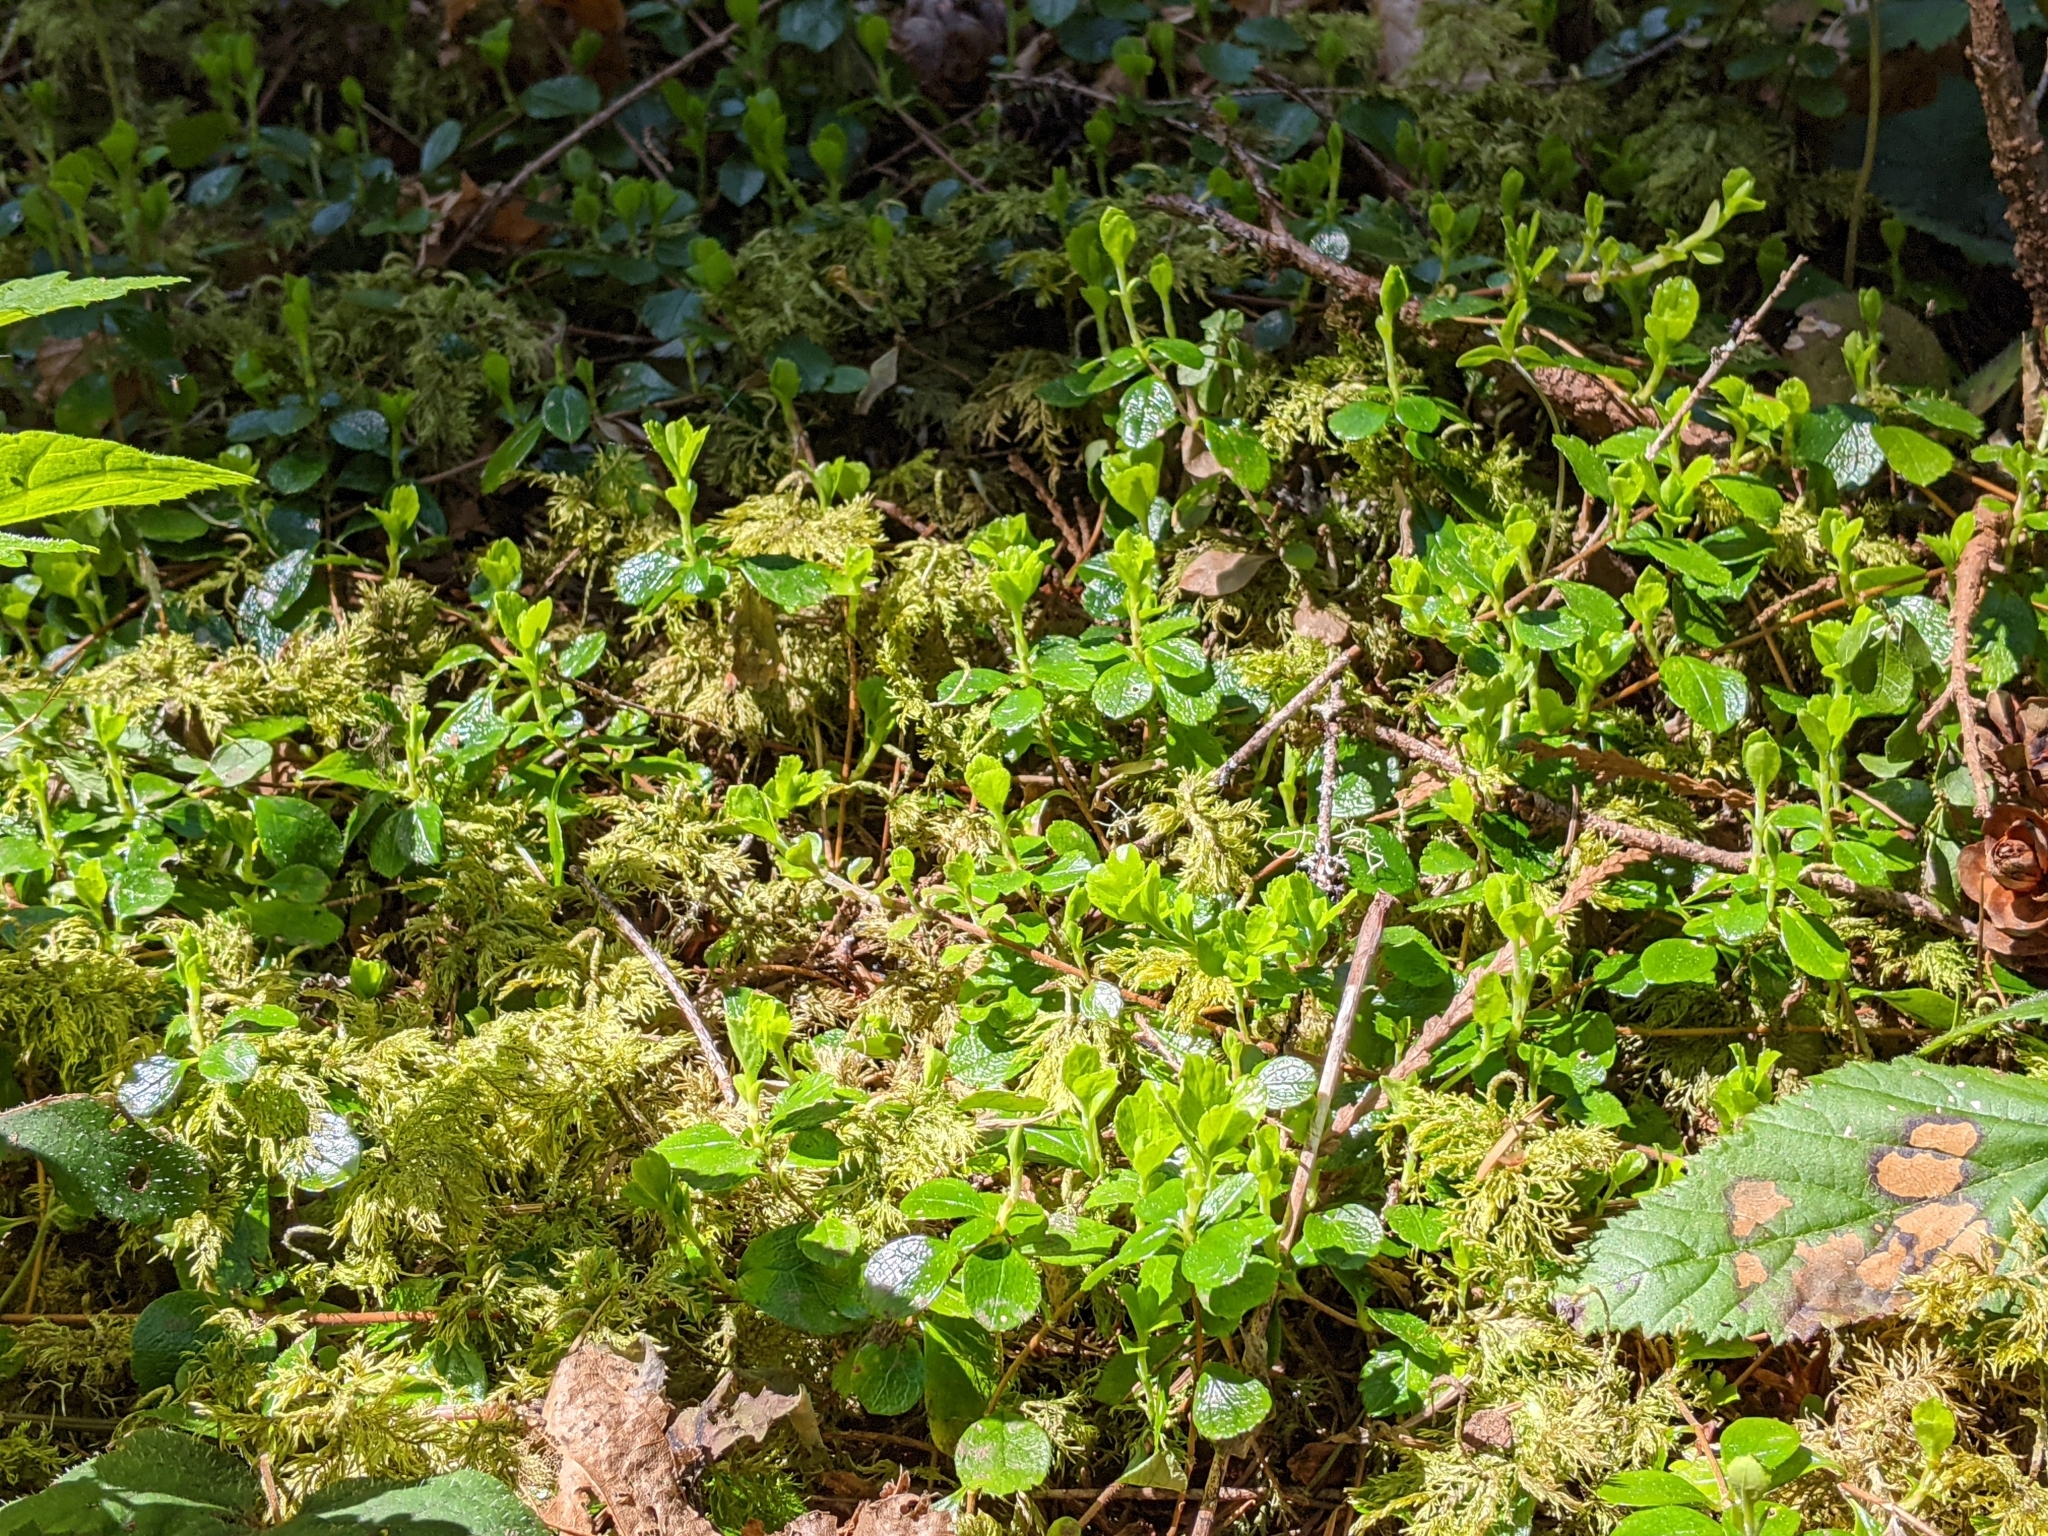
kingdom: Plantae
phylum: Tracheophyta
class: Magnoliopsida
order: Dipsacales
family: Caprifoliaceae
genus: Linnaea
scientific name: Linnaea borealis
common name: Twinflower
